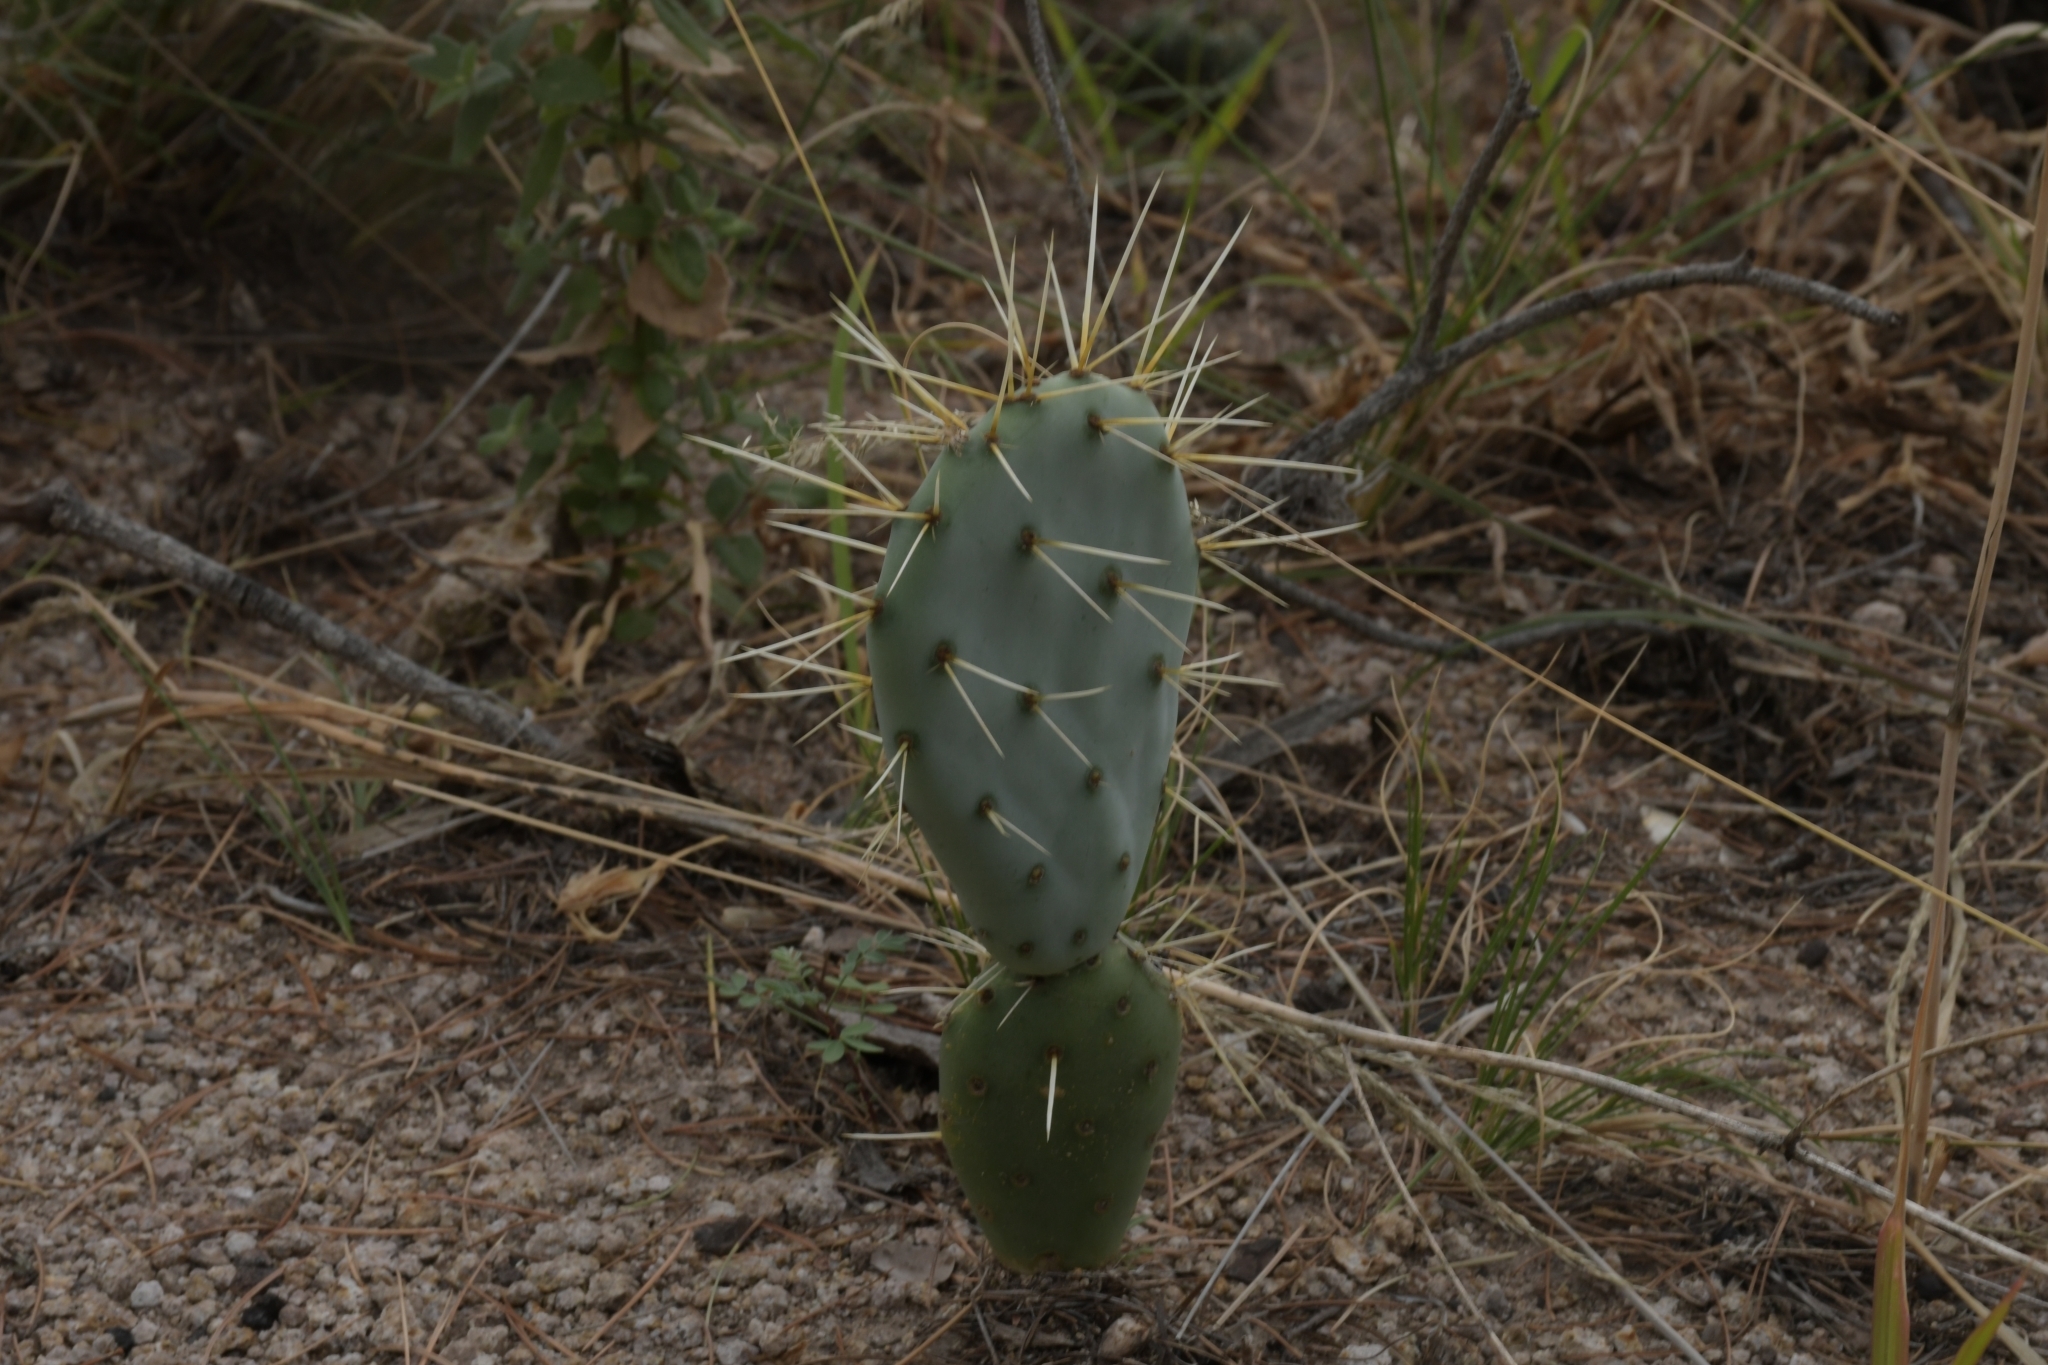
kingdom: Plantae
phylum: Tracheophyta
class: Magnoliopsida
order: Caryophyllales
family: Cactaceae
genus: Opuntia
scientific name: Opuntia robusta
